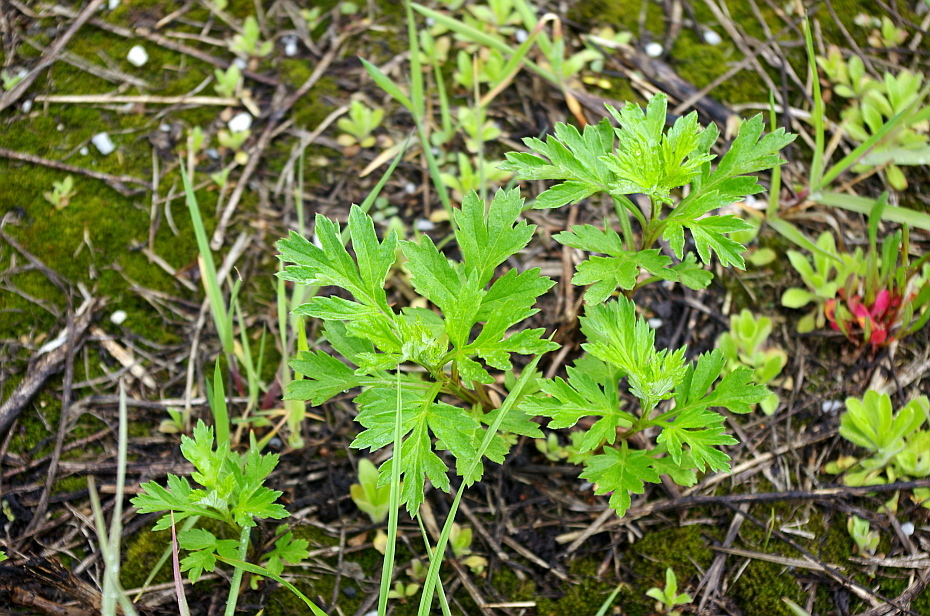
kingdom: Plantae
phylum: Tracheophyta
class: Magnoliopsida
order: Asterales
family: Asteraceae
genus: Artemisia
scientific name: Artemisia vulgaris
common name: Mugwort
